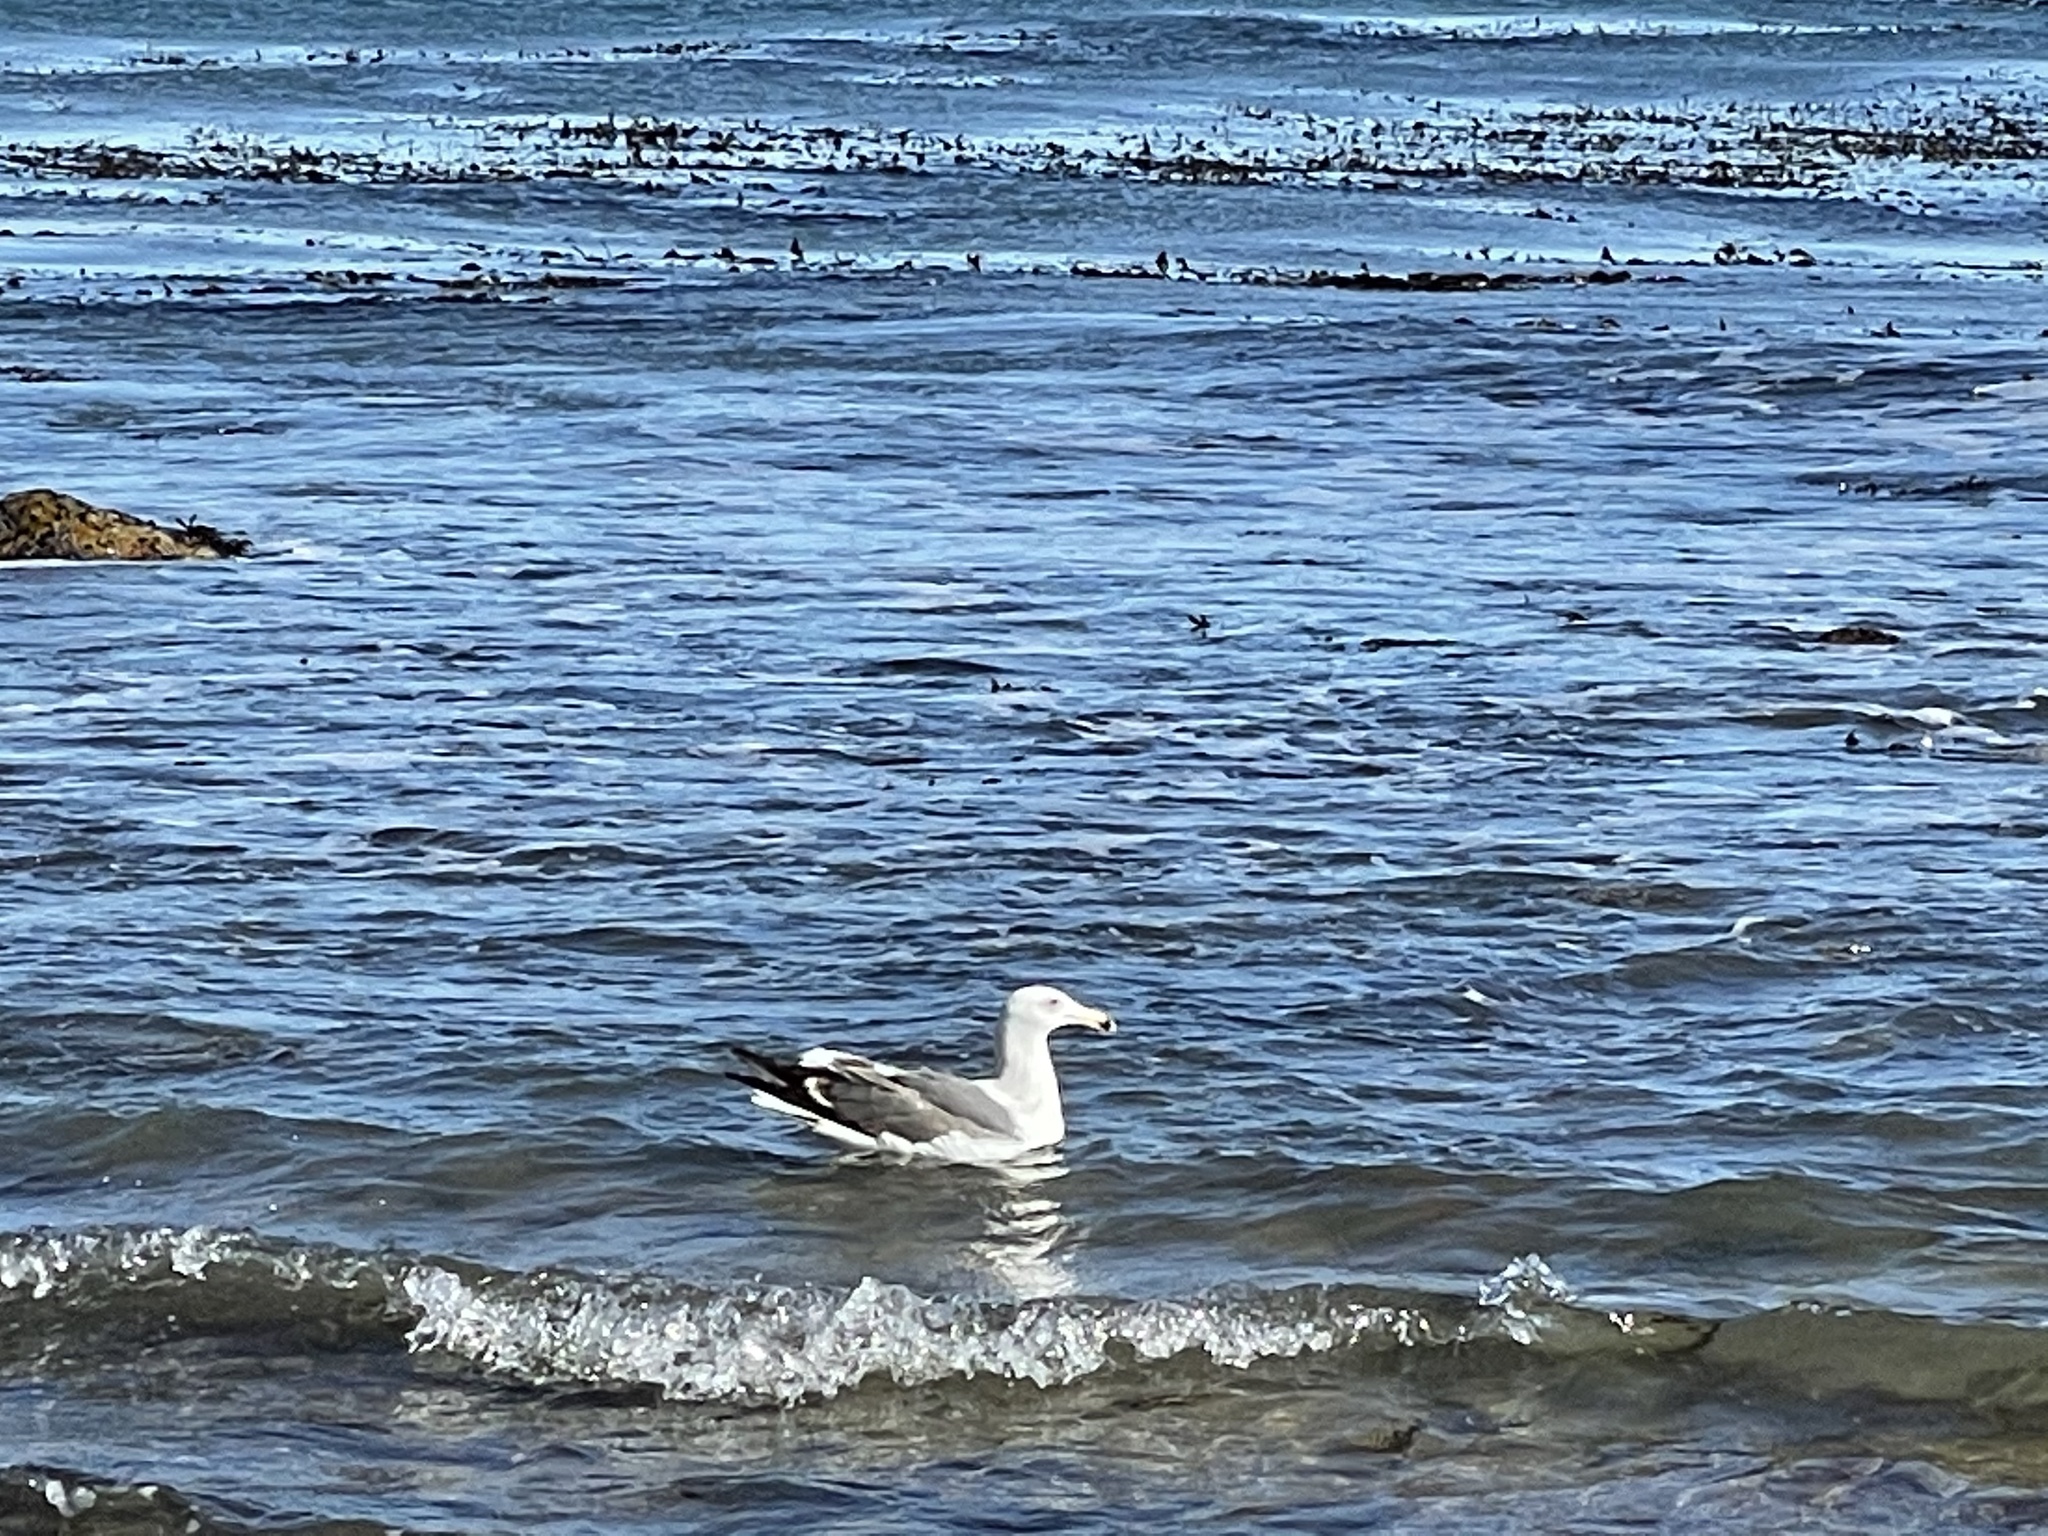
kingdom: Animalia
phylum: Chordata
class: Aves
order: Charadriiformes
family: Laridae
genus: Larus
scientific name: Larus occidentalis
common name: Western gull
